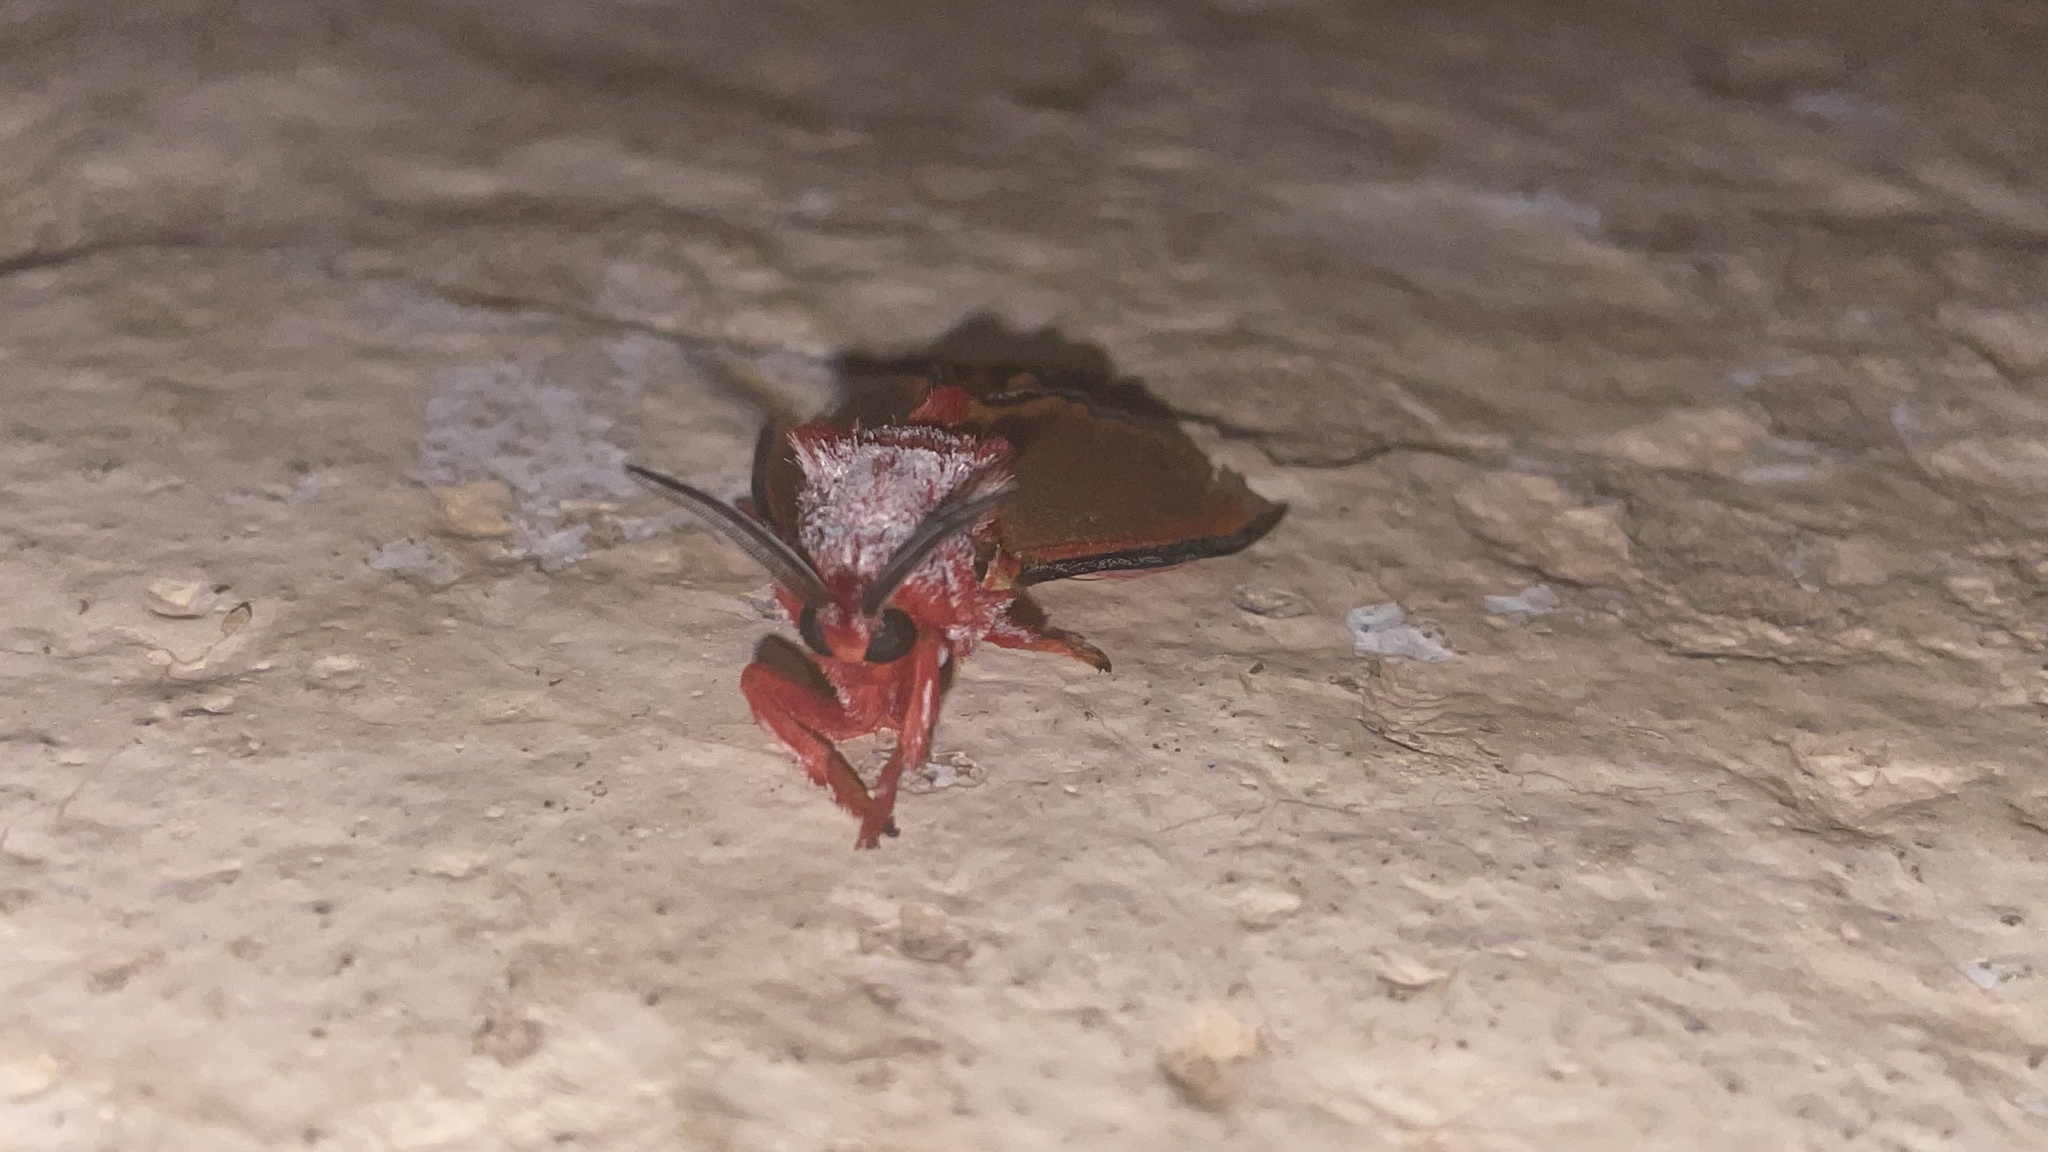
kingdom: Animalia
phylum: Arthropoda
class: Insecta
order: Lepidoptera
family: Megalopygidae
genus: Edebessa
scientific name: Edebessa purens
